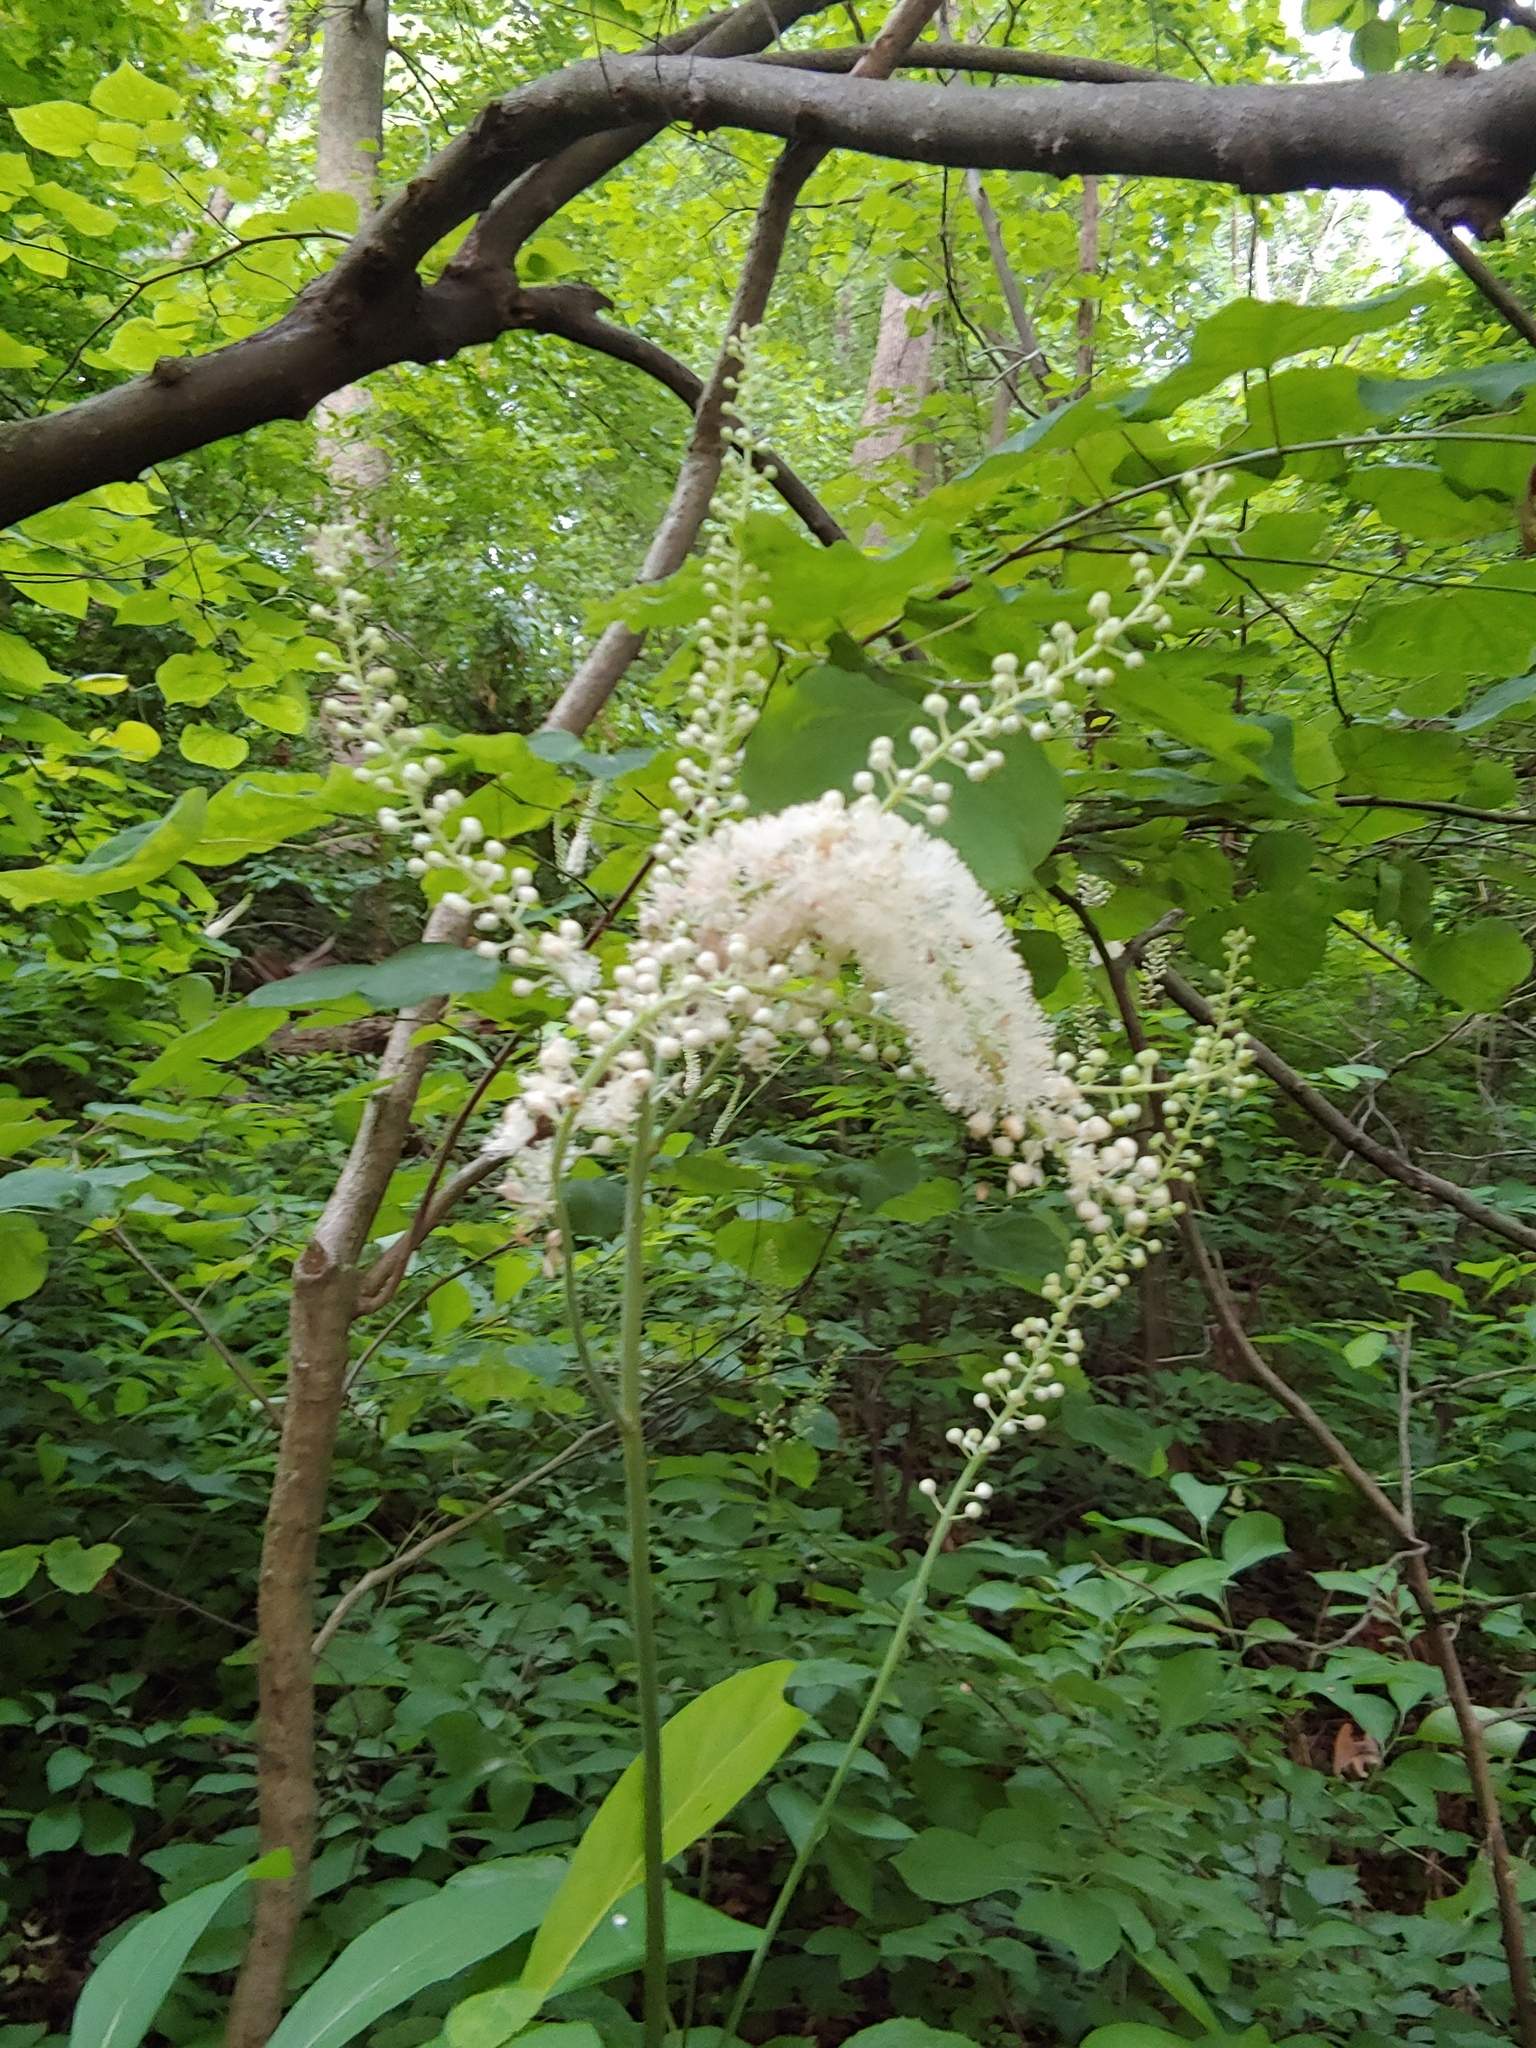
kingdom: Plantae
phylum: Tracheophyta
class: Magnoliopsida
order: Ranunculales
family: Ranunculaceae
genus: Actaea
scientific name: Actaea racemosa
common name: Black cohosh
